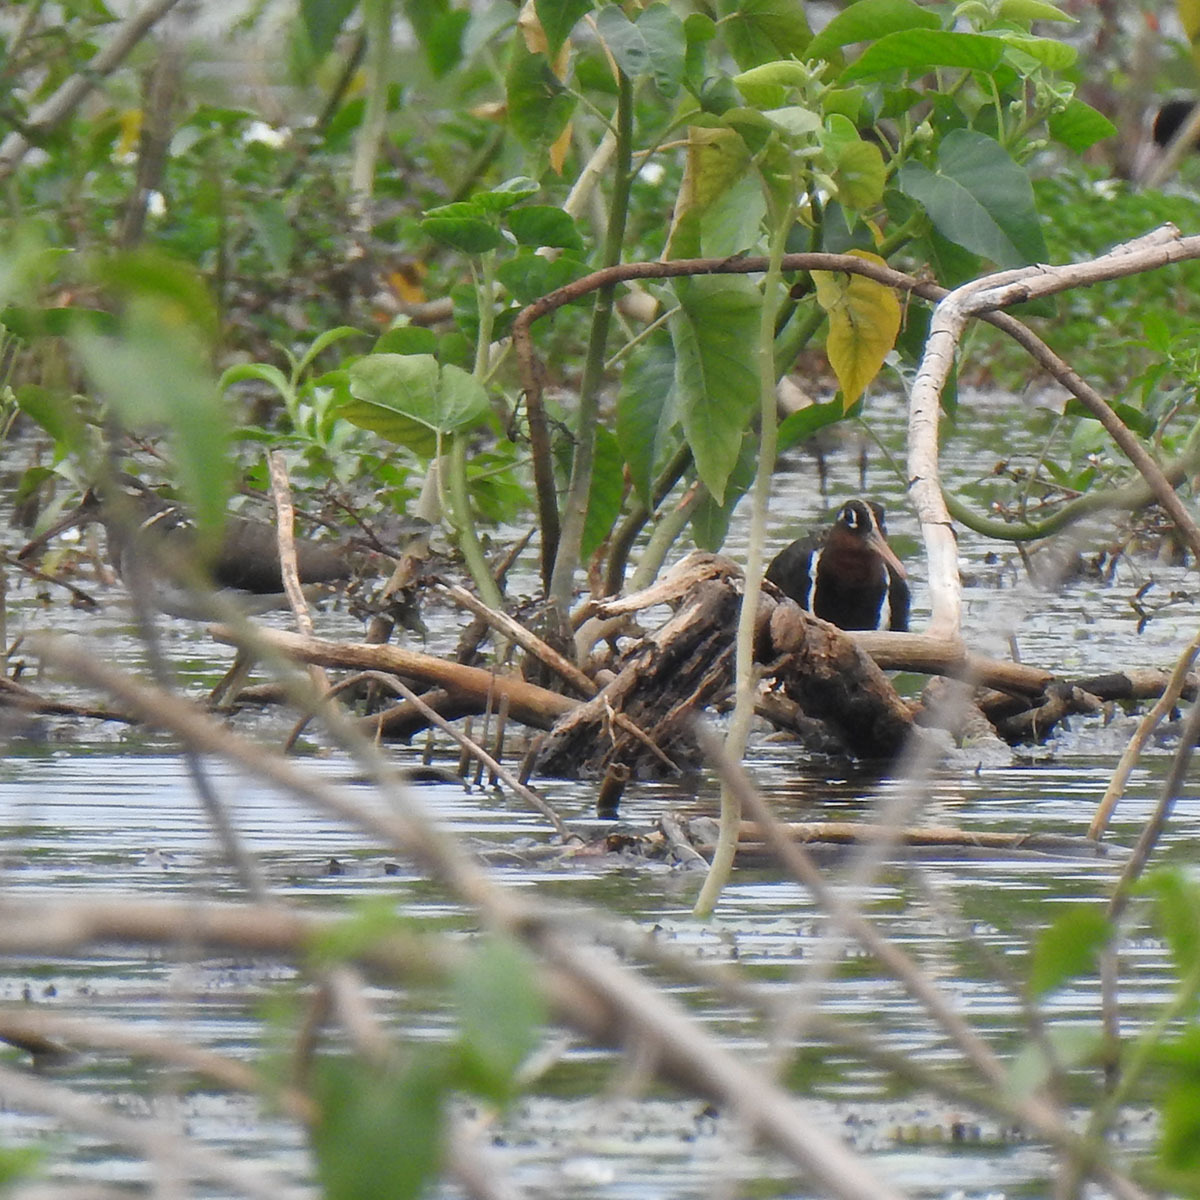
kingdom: Animalia
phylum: Chordata
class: Aves
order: Charadriiformes
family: Rostratulidae
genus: Rostratula
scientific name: Rostratula benghalensis
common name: Greater painted-snipe
